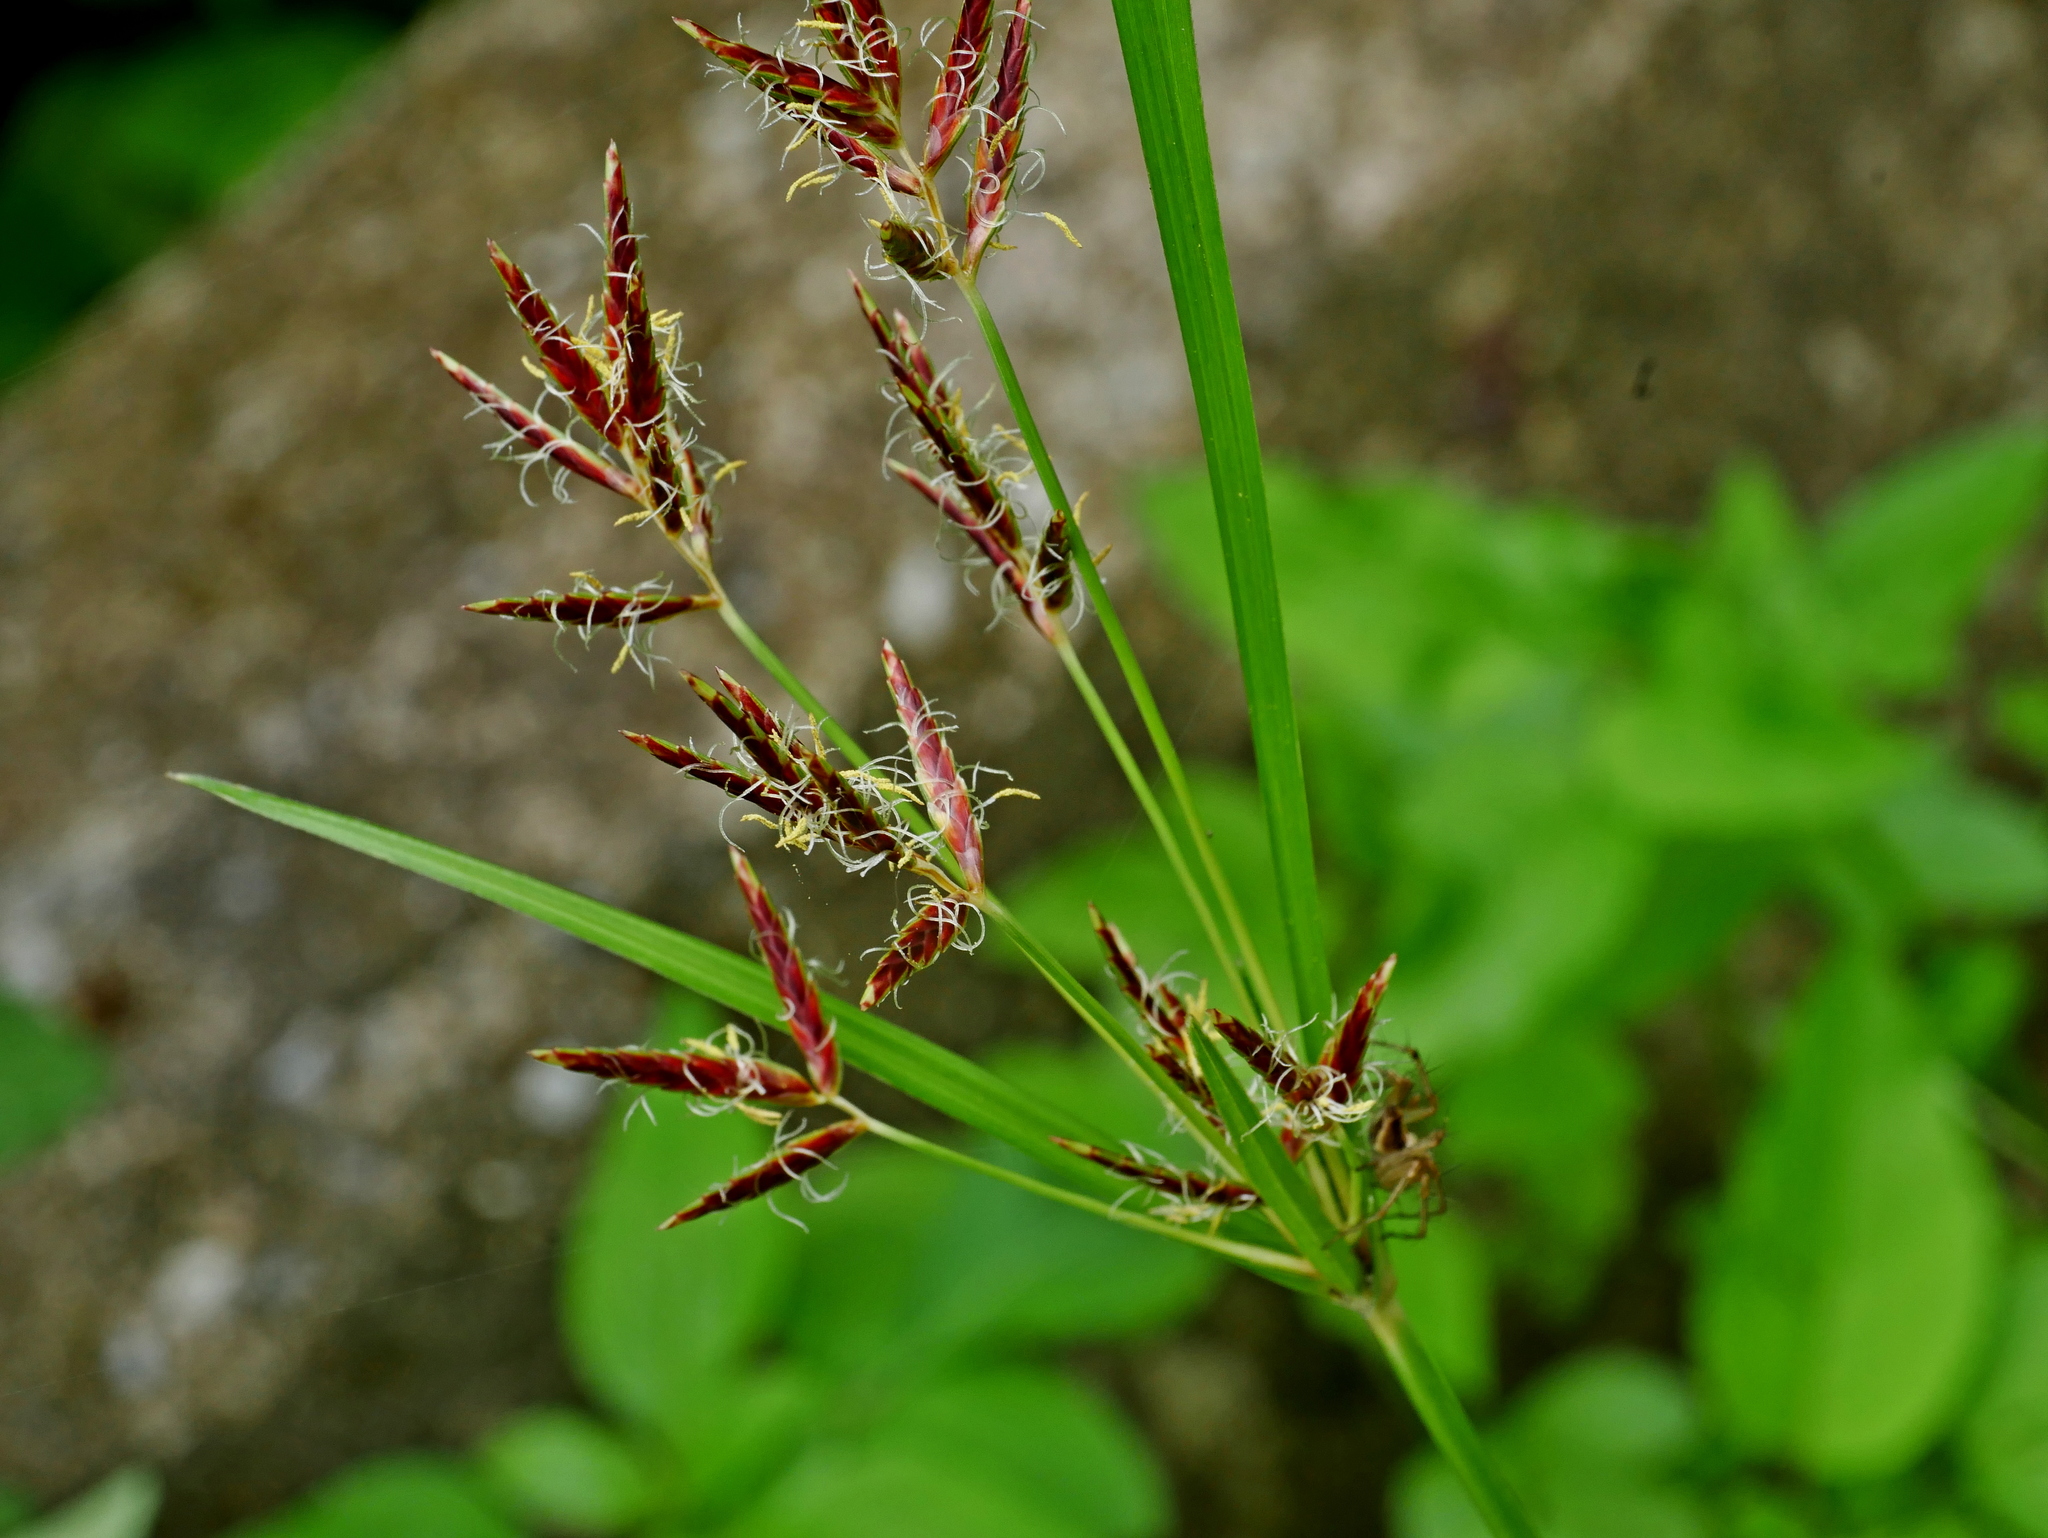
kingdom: Plantae
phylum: Tracheophyta
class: Liliopsida
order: Poales
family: Cyperaceae
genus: Cyperus
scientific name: Cyperus rotundus
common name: Nutgrass
